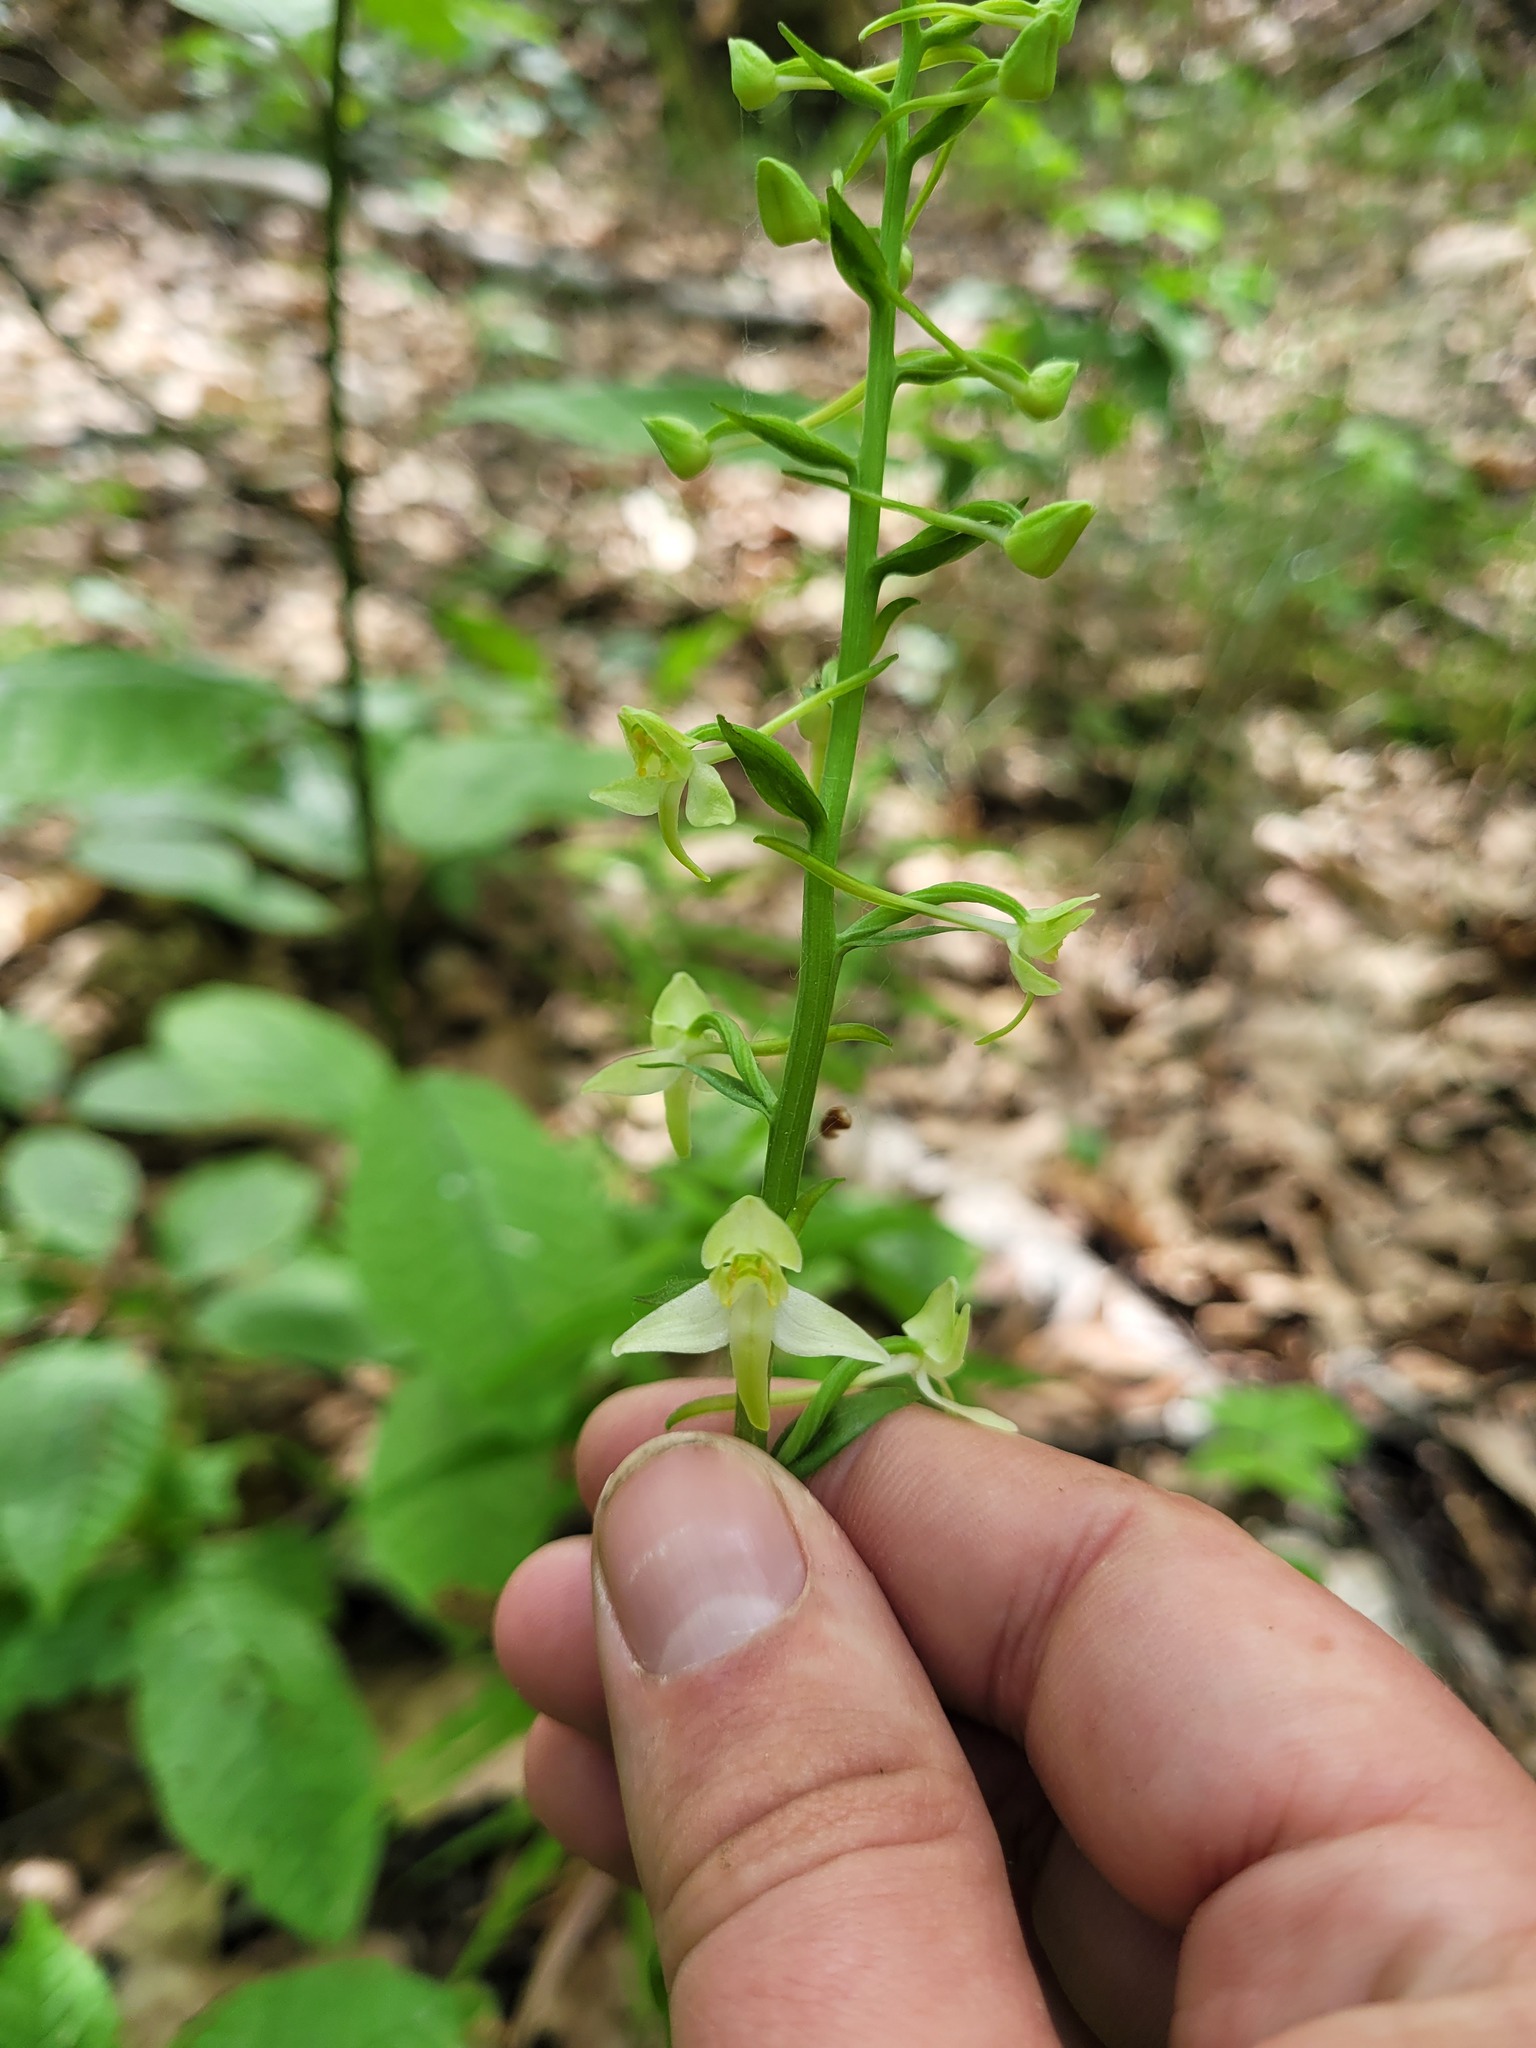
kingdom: Plantae
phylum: Tracheophyta
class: Liliopsida
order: Asparagales
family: Orchidaceae
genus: Platanthera
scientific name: Platanthera chlorantha
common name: Greater butterfly-orchid
